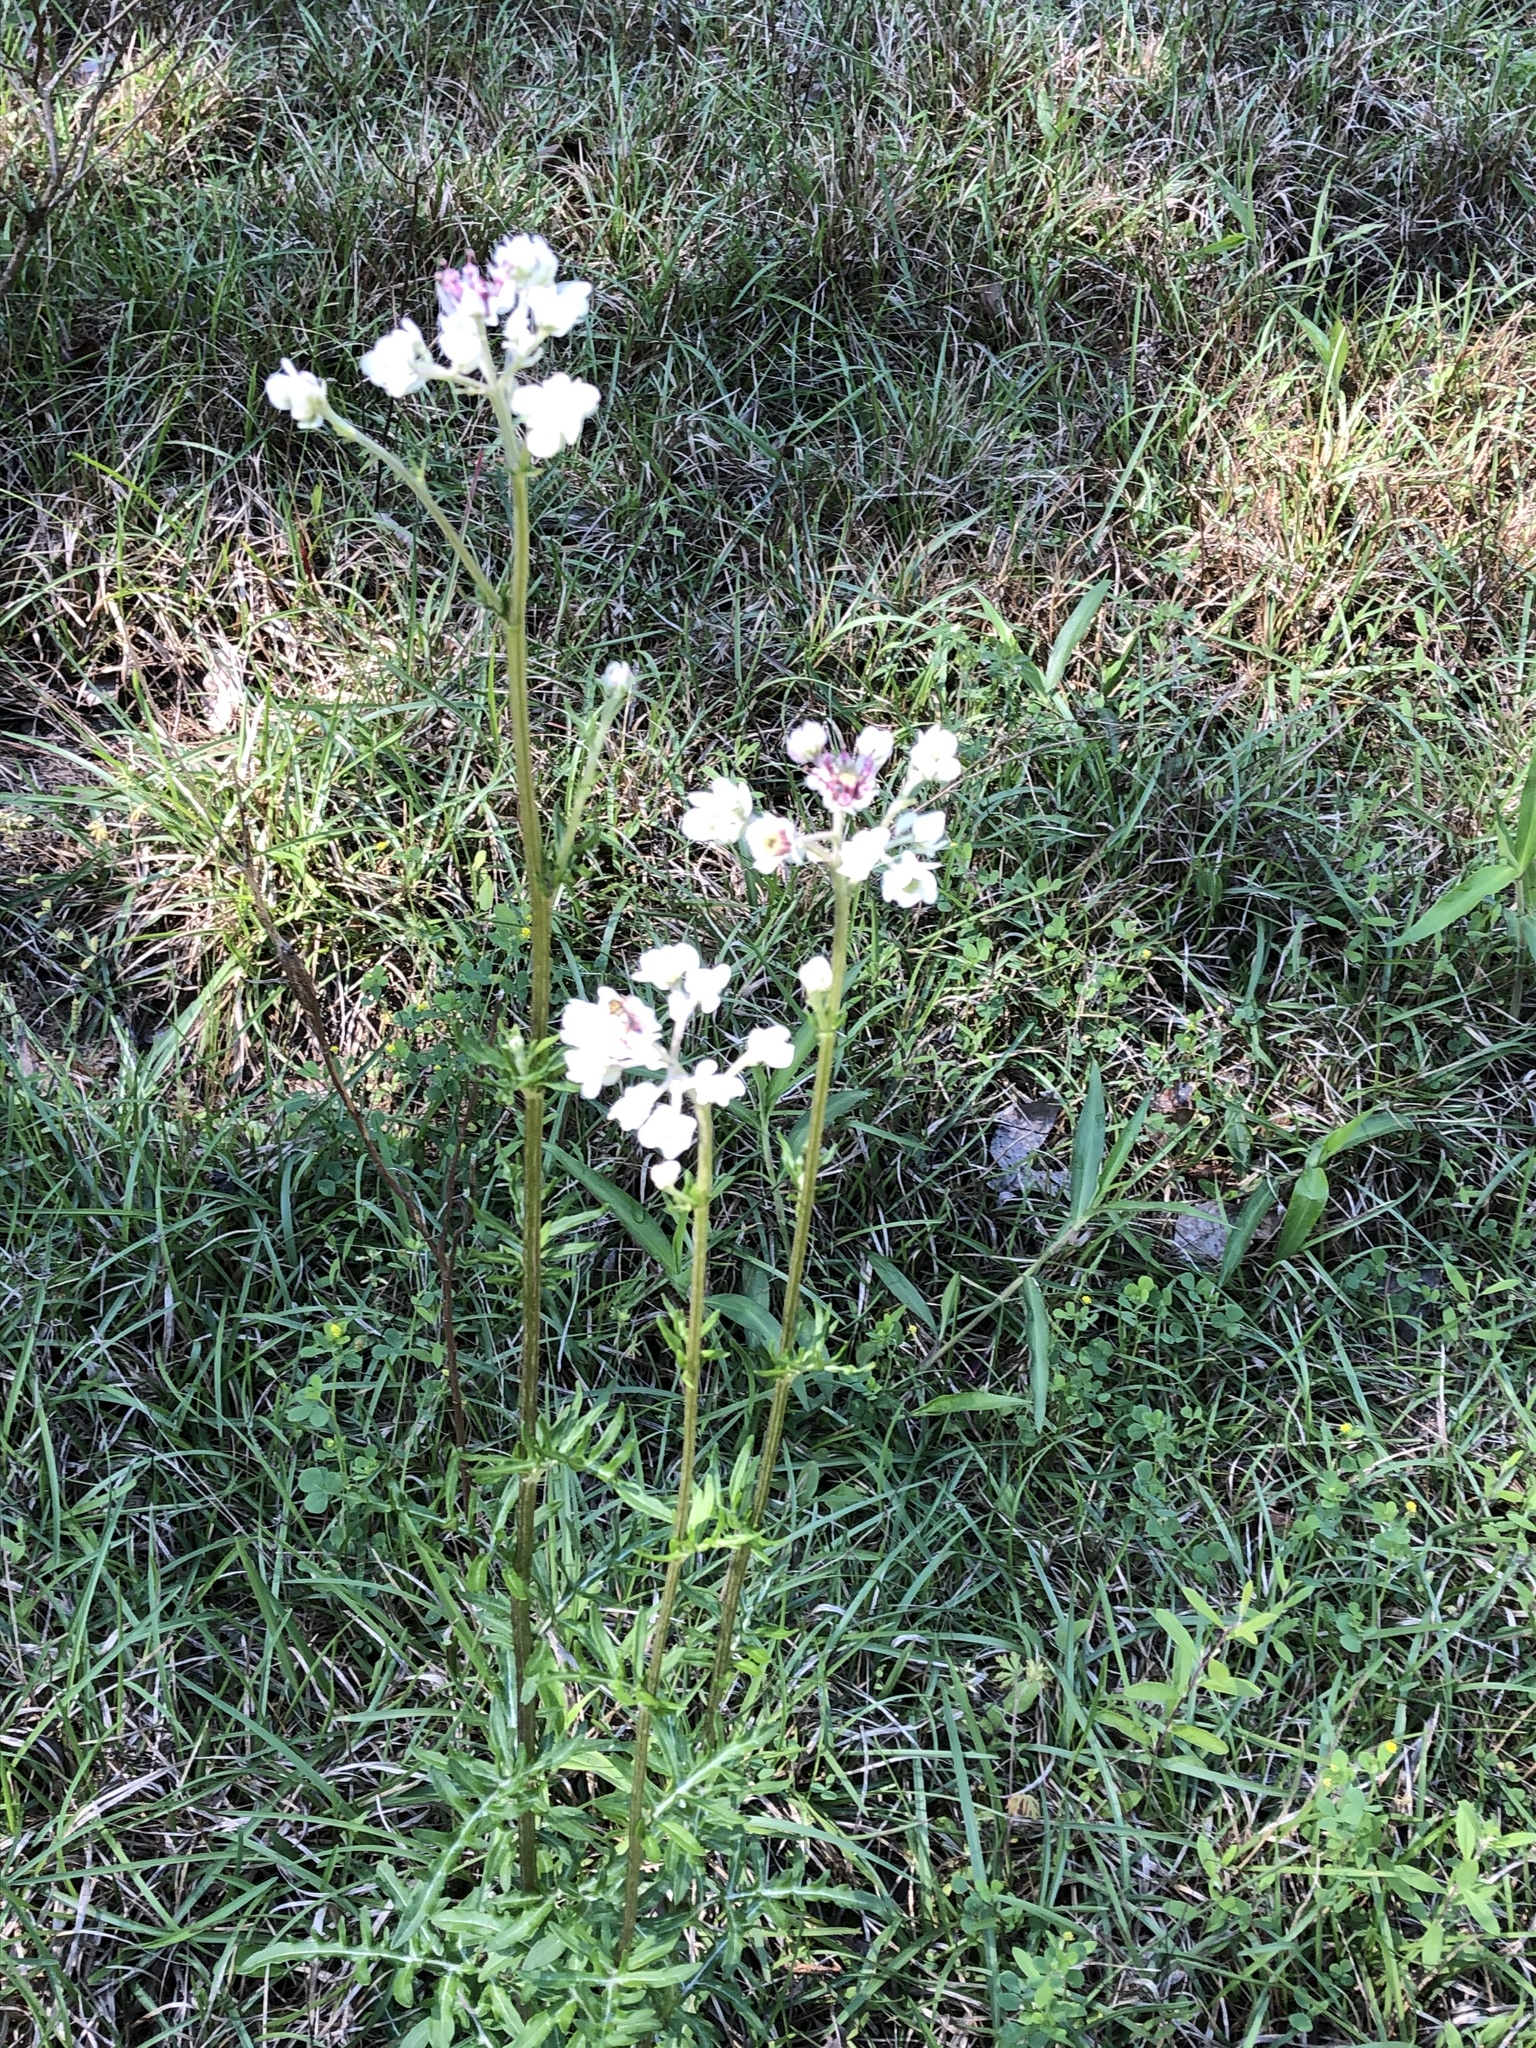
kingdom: Plantae
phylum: Tracheophyta
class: Magnoliopsida
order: Asterales
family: Asteraceae
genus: Hymenopappus
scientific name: Hymenopappus artemisiifolius
